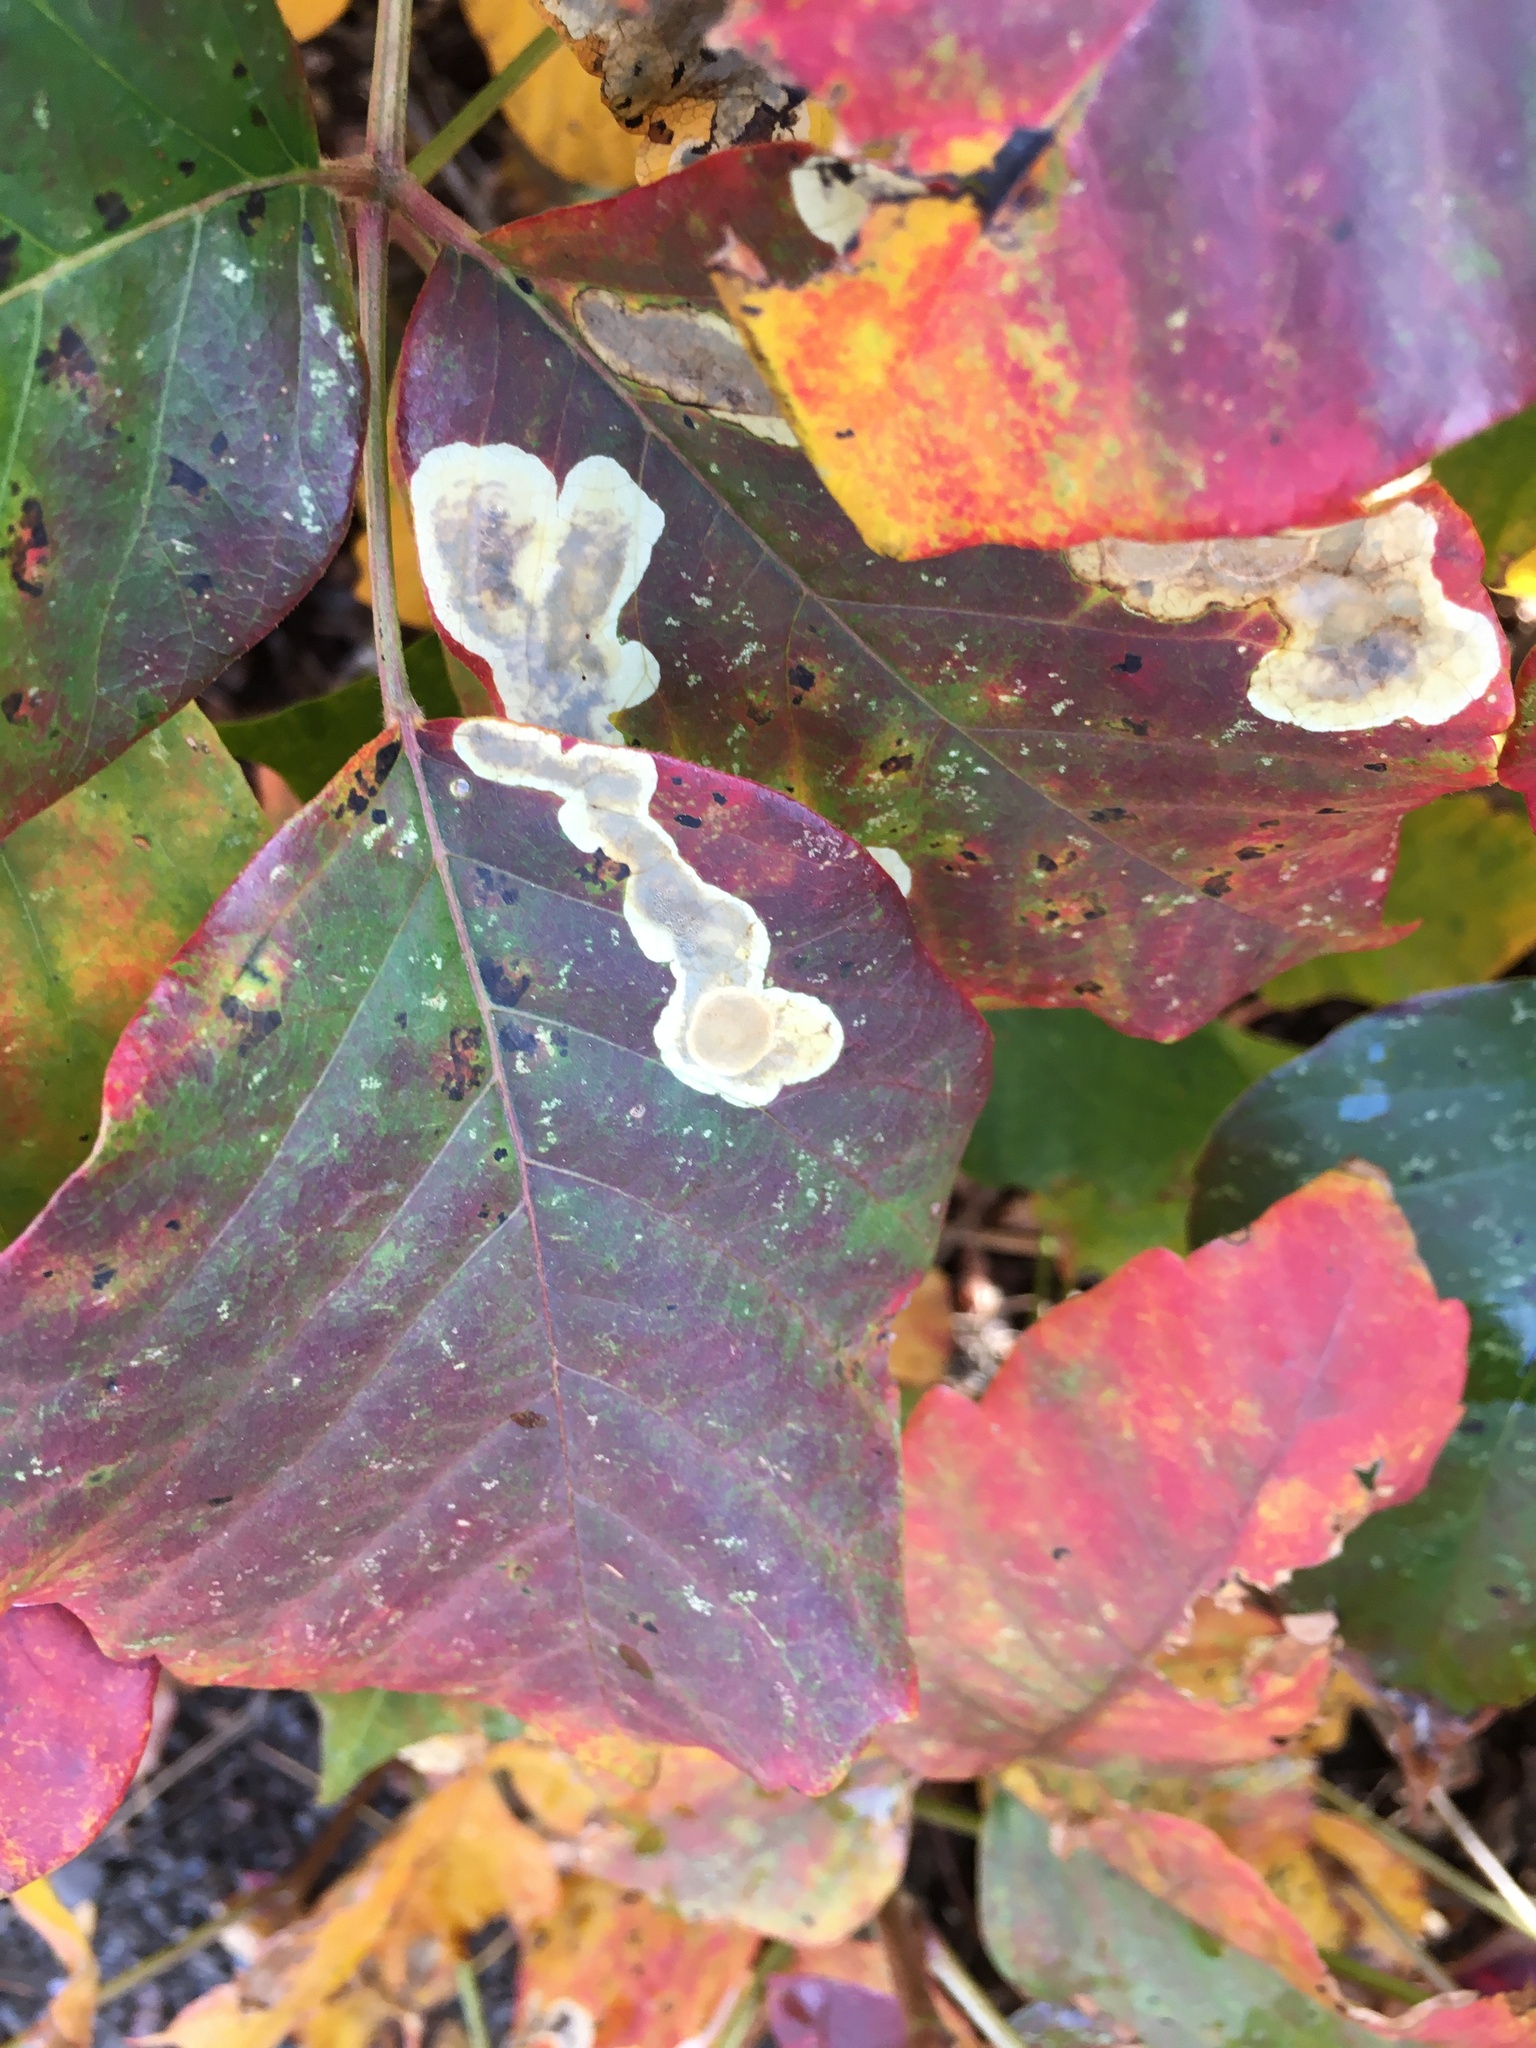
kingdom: Animalia
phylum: Arthropoda
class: Insecta
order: Lepidoptera
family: Gracillariidae
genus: Cameraria
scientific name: Cameraria guttifinitella
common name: Poison ivy leaf-miner moth
